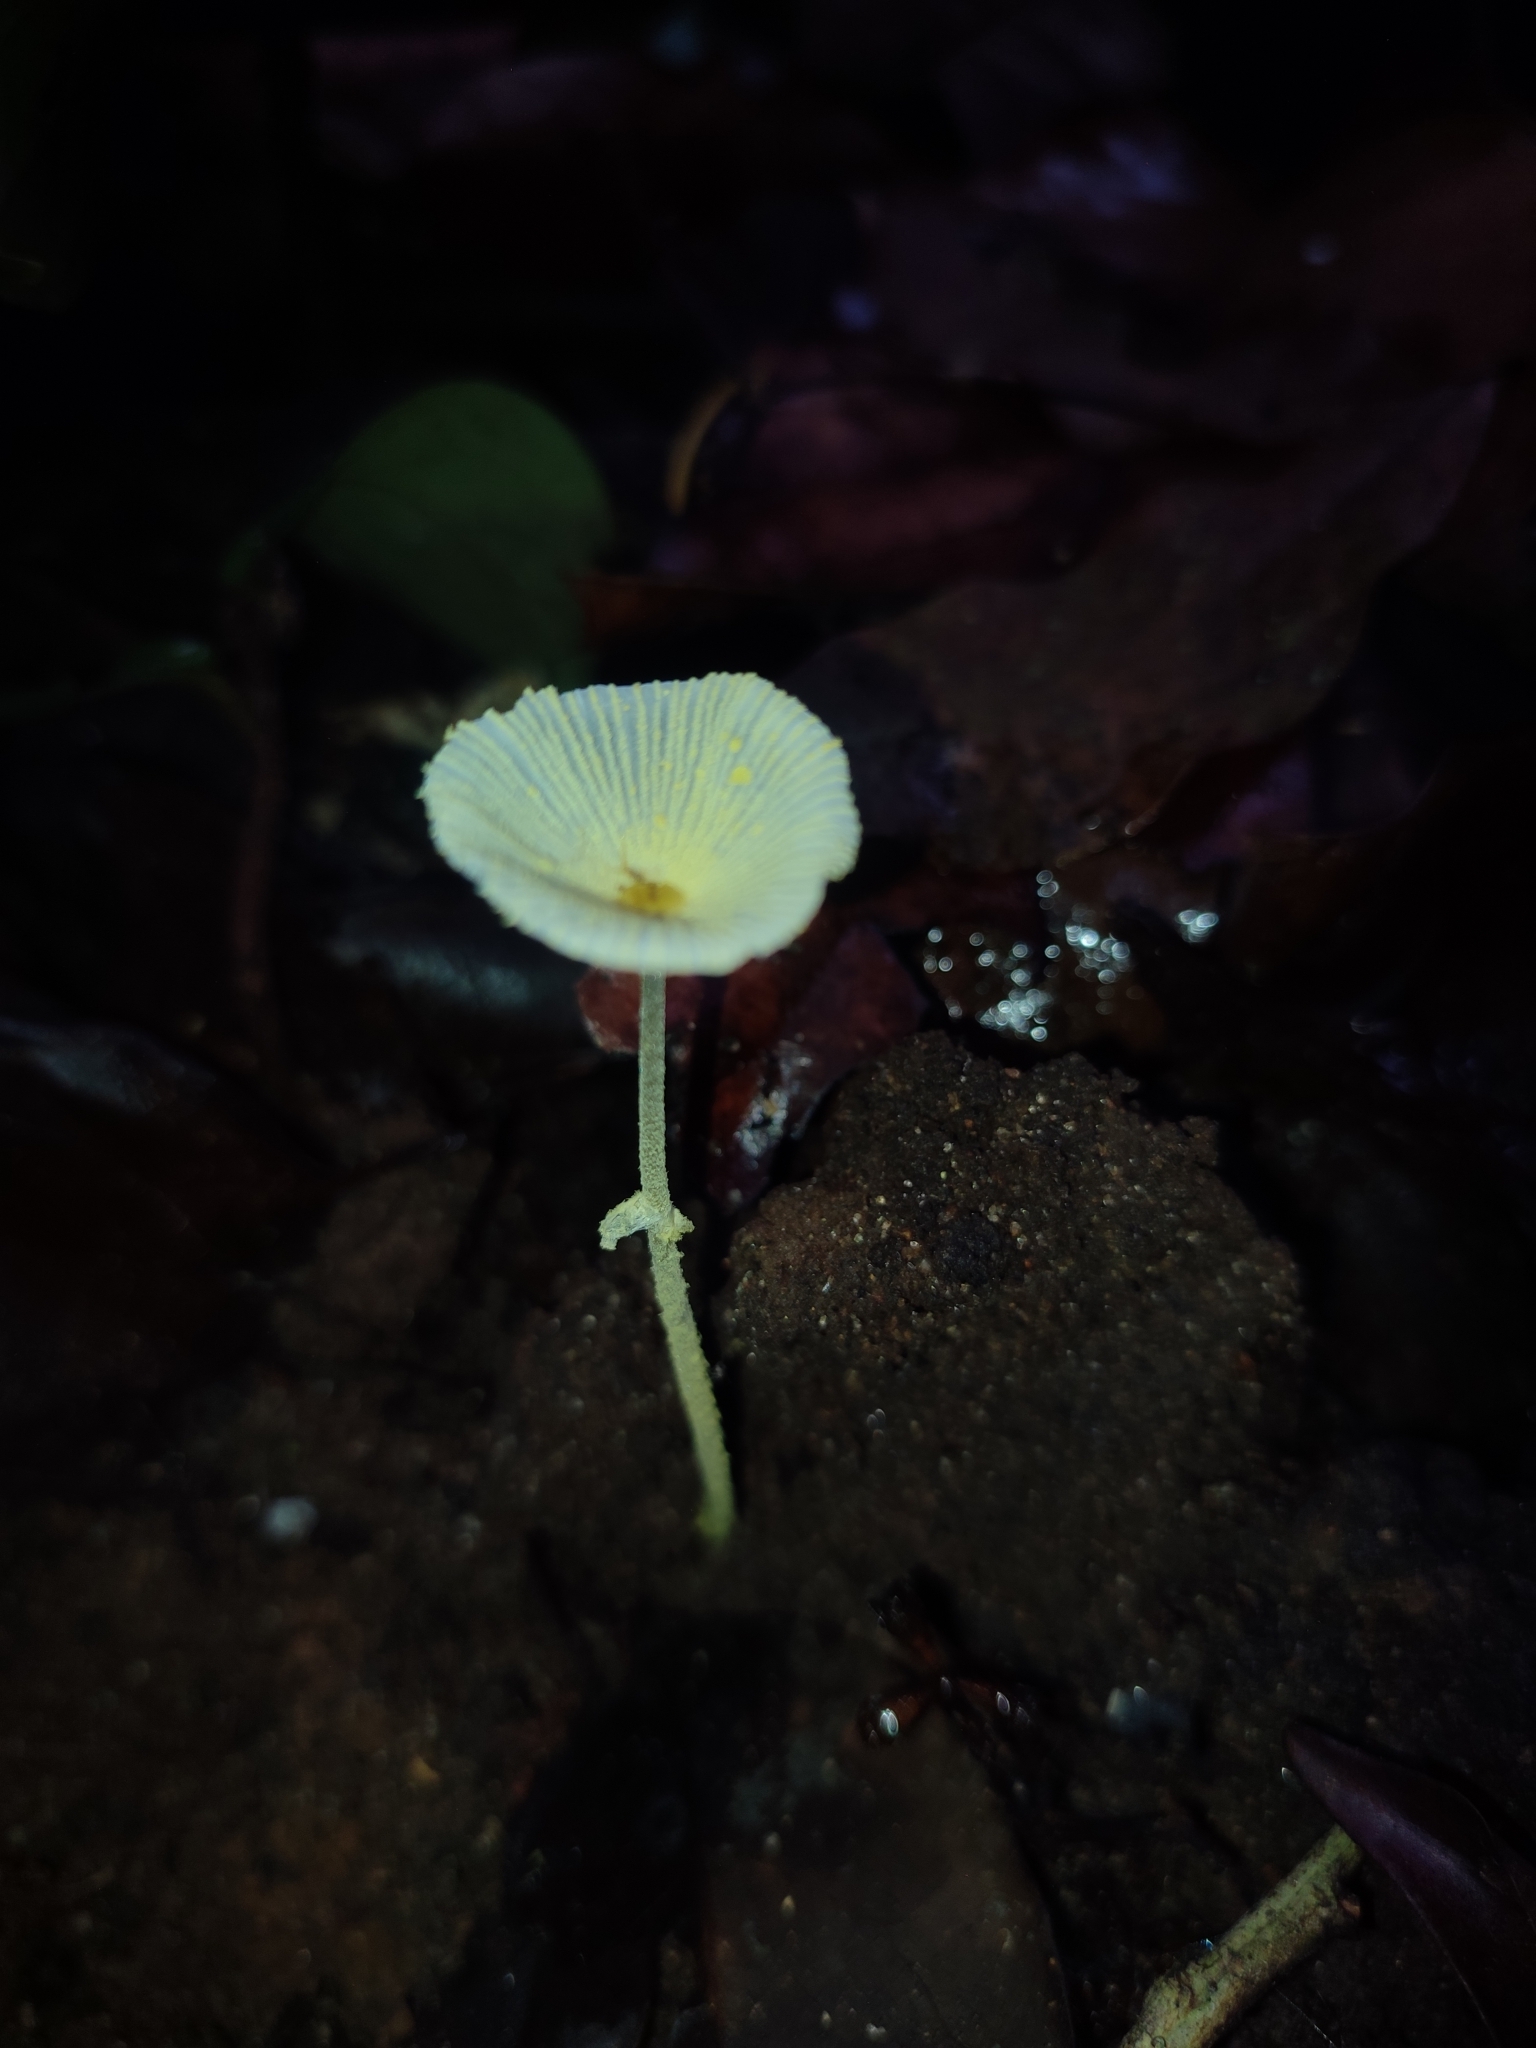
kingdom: Fungi
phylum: Basidiomycota
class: Agaricomycetes
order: Agaricales
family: Agaricaceae
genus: Leucocoprinus
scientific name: Leucocoprinus fragilissimus
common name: Fragile dapperling
